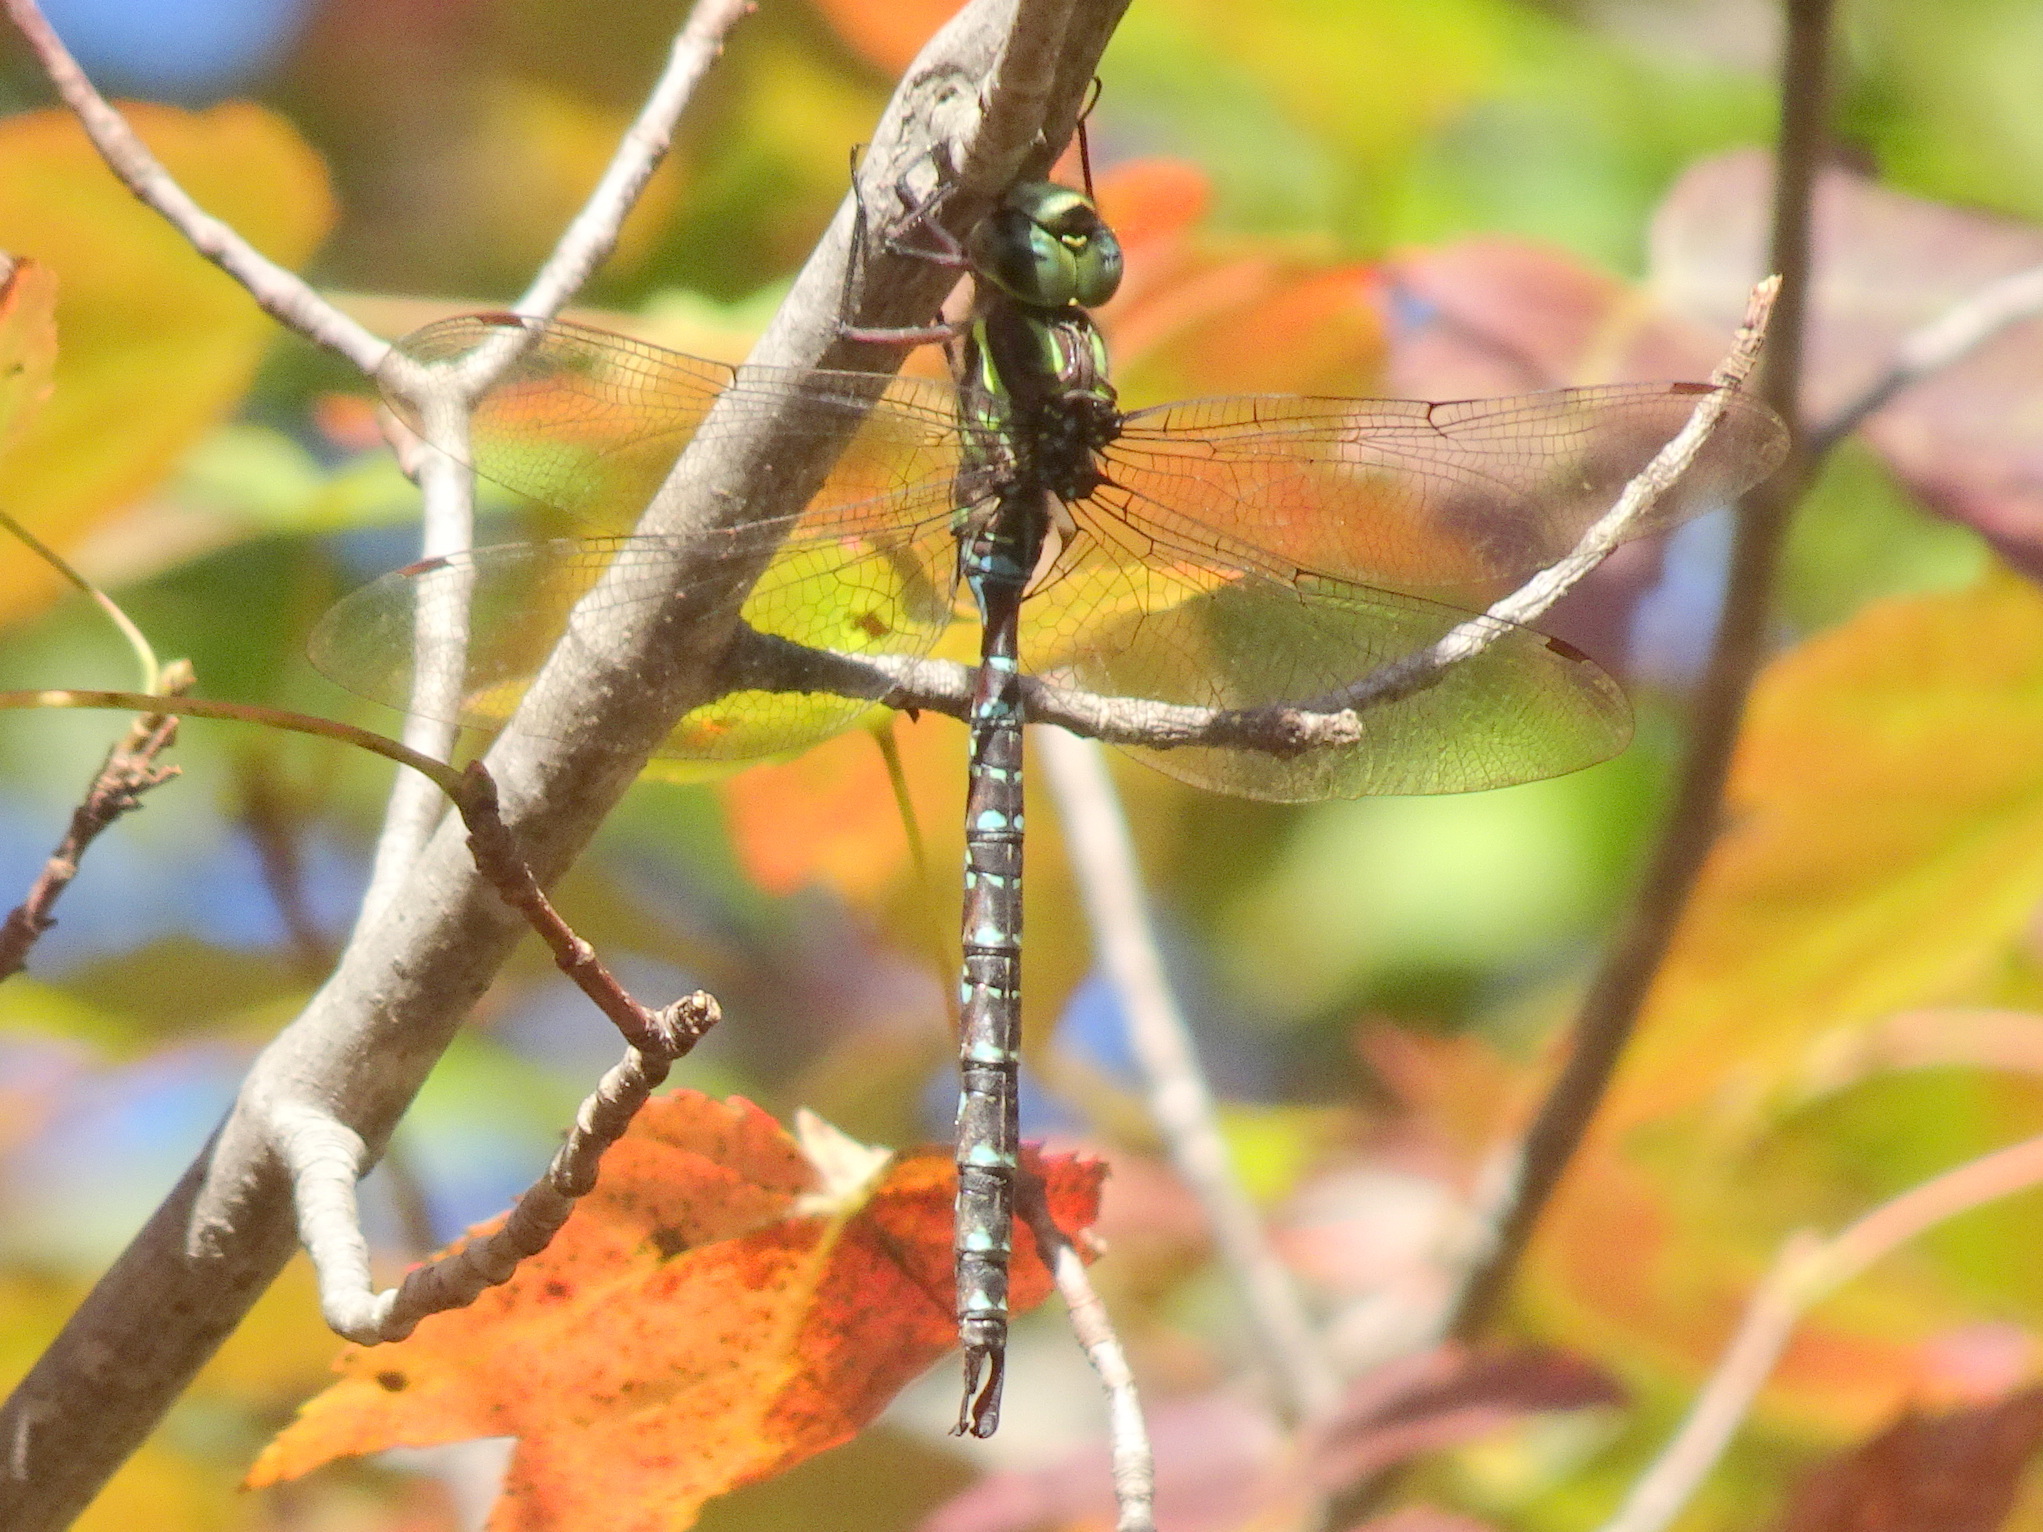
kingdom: Animalia
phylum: Arthropoda
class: Insecta
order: Odonata
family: Aeshnidae
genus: Aeshna
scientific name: Aeshna umbrosa
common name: Shadow darner
